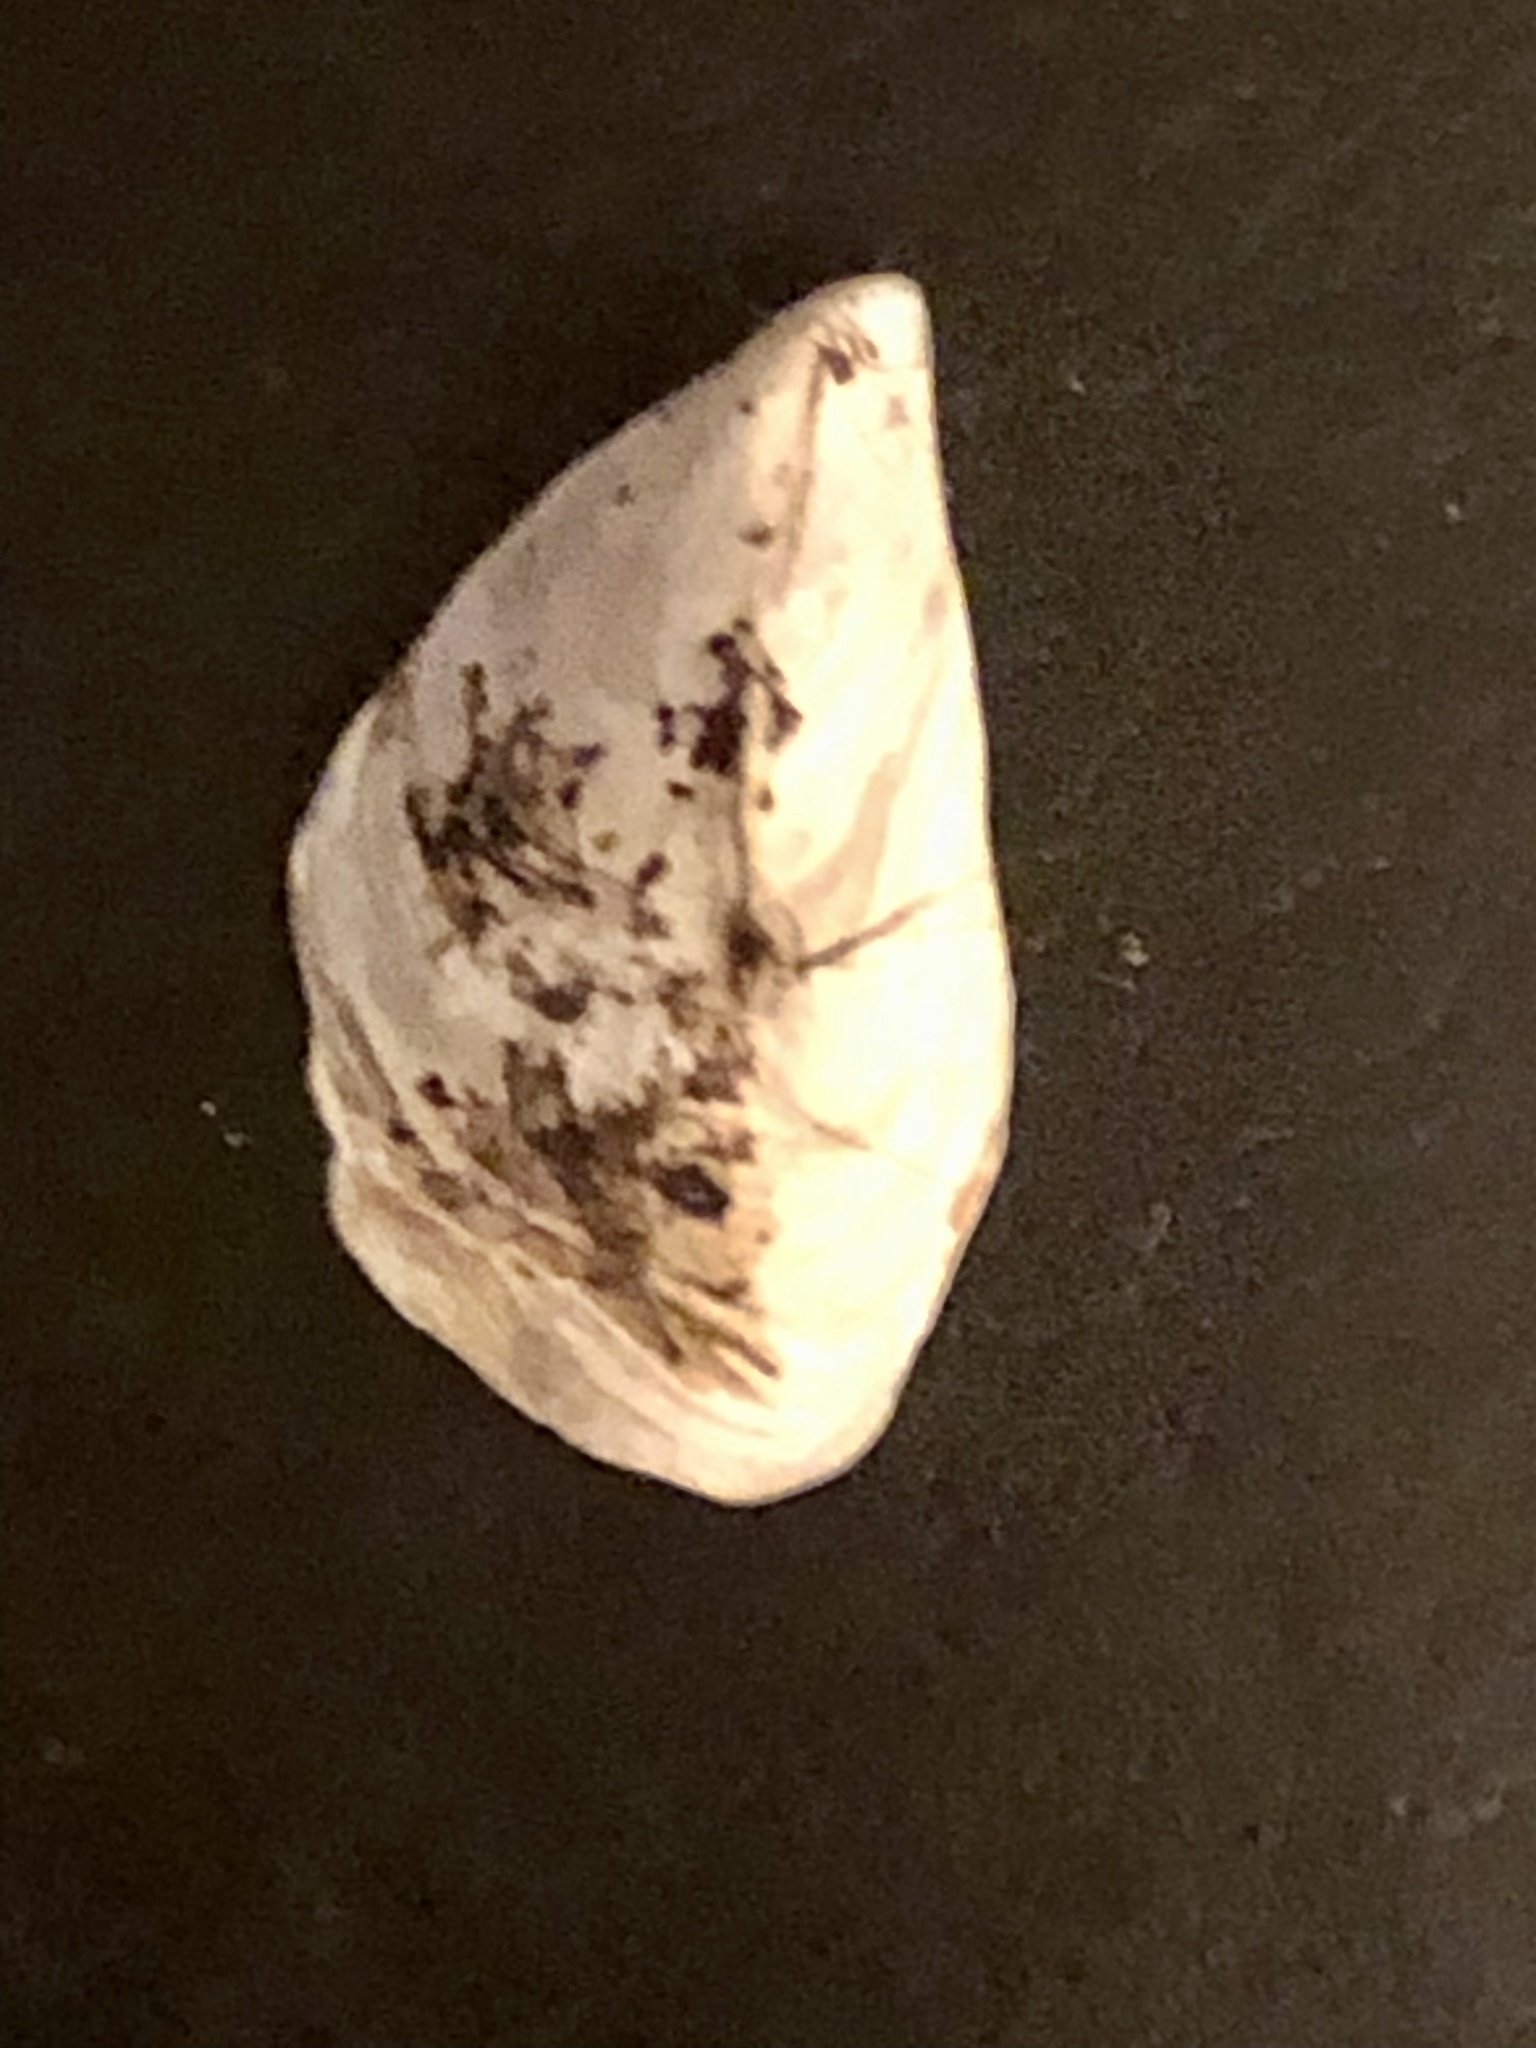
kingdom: Animalia
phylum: Mollusca
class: Bivalvia
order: Myida
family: Dreissenidae
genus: Dreissena
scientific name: Dreissena bugensis
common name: Quagga mussel
